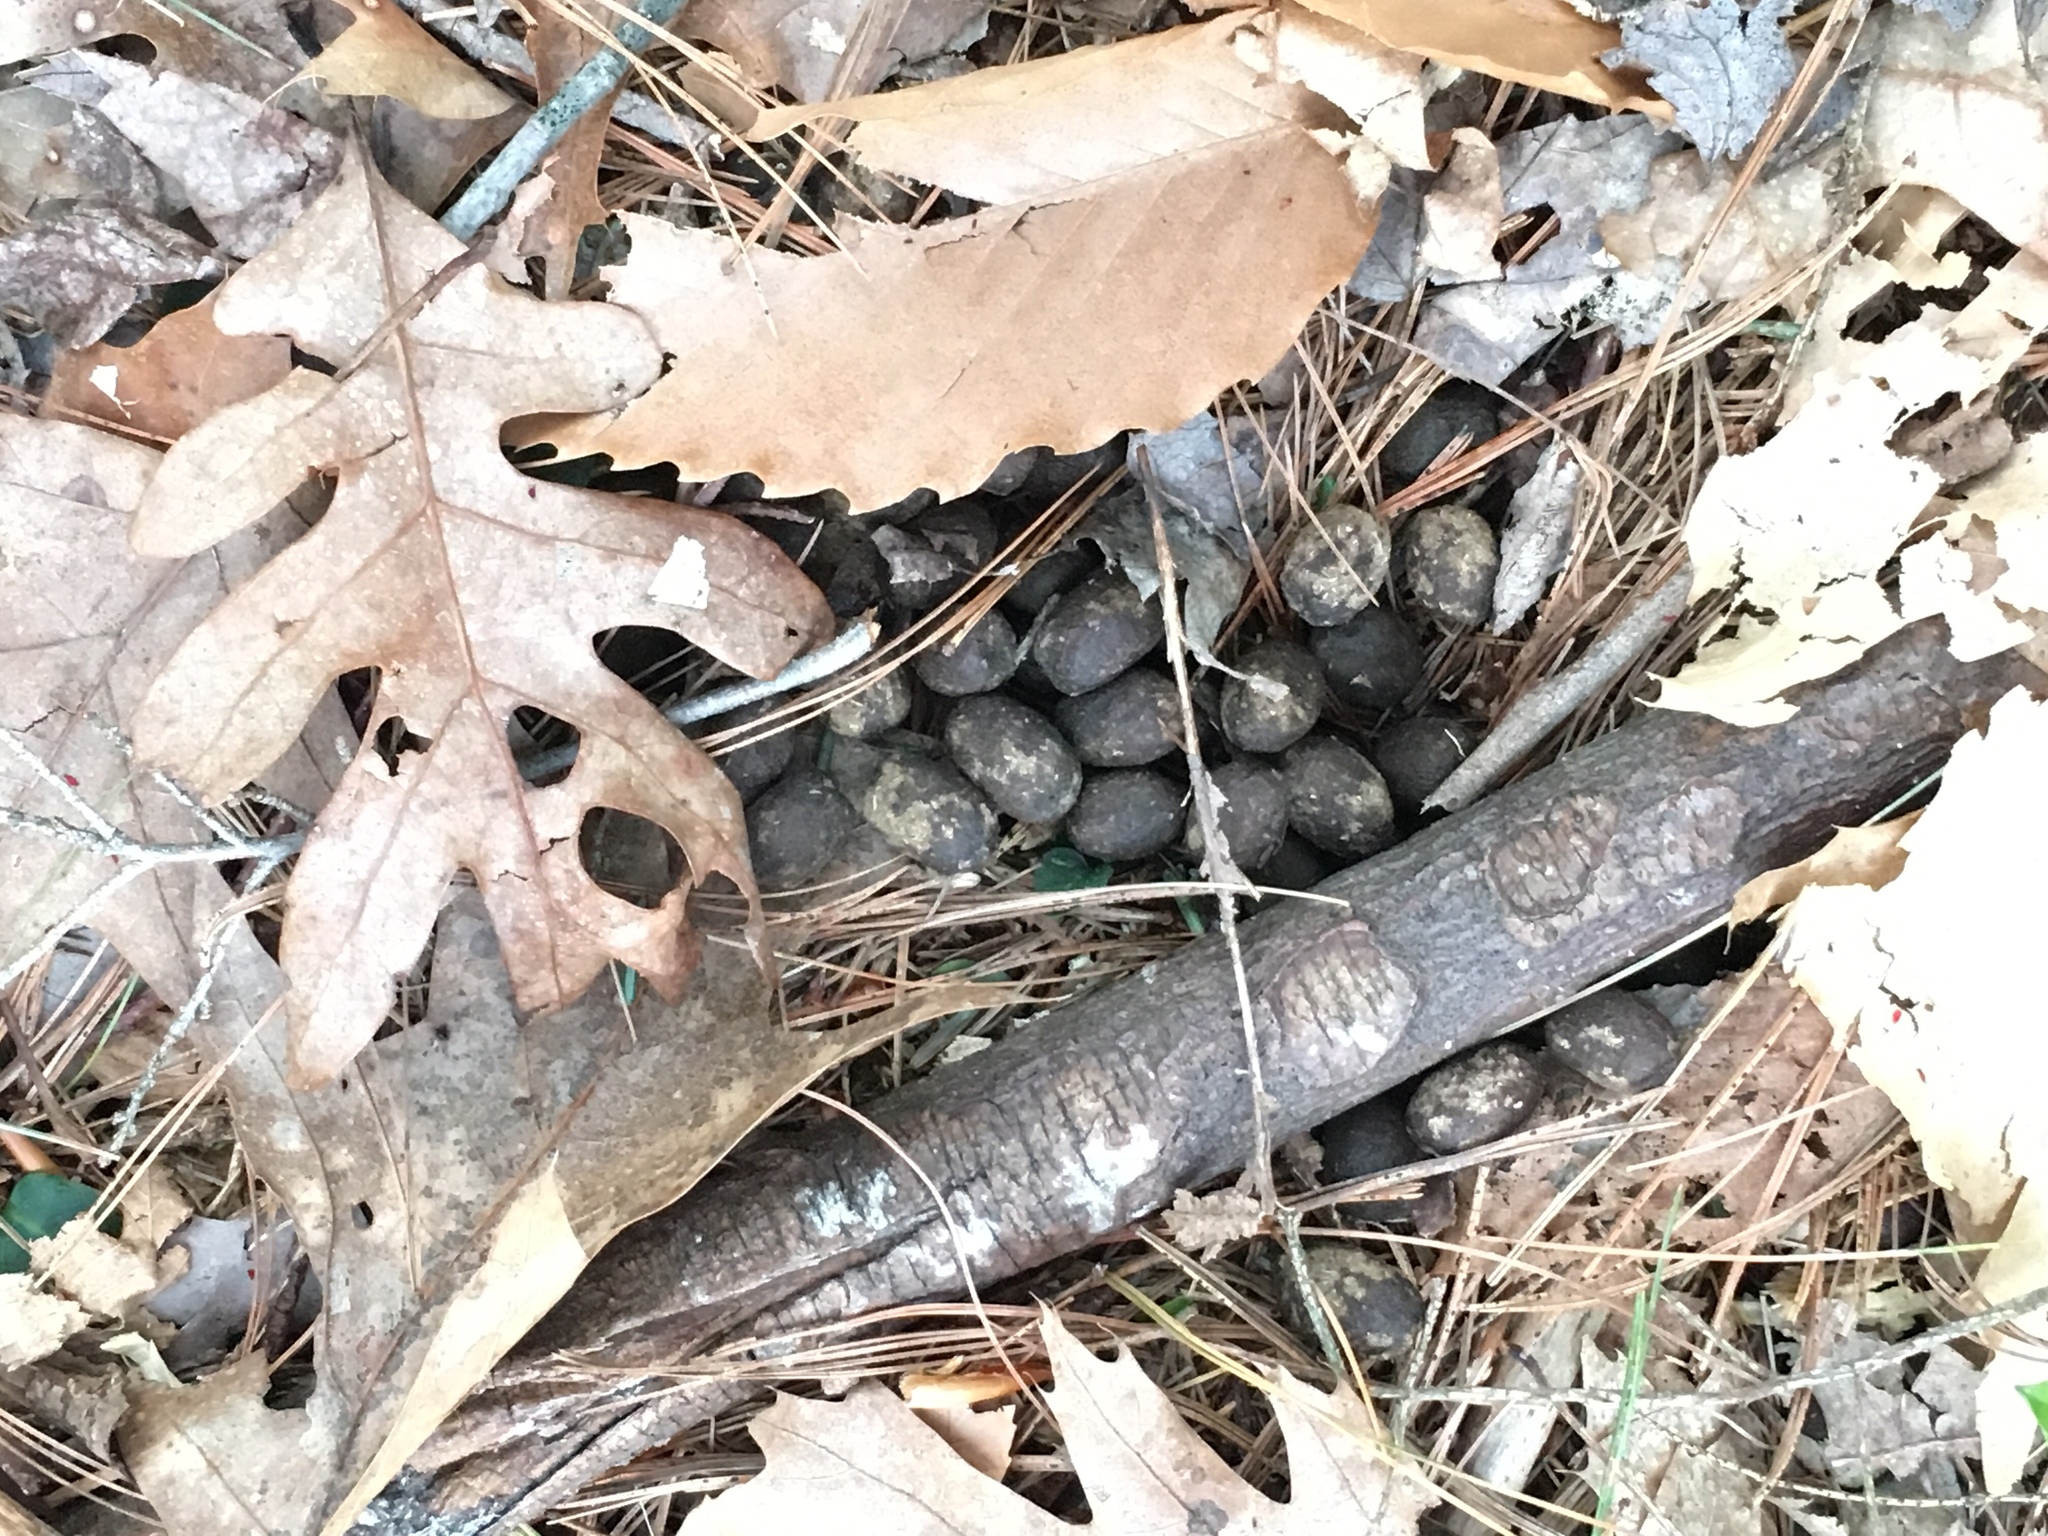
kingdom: Animalia
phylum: Chordata
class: Mammalia
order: Artiodactyla
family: Cervidae
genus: Odocoileus
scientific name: Odocoileus virginianus
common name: White-tailed deer
